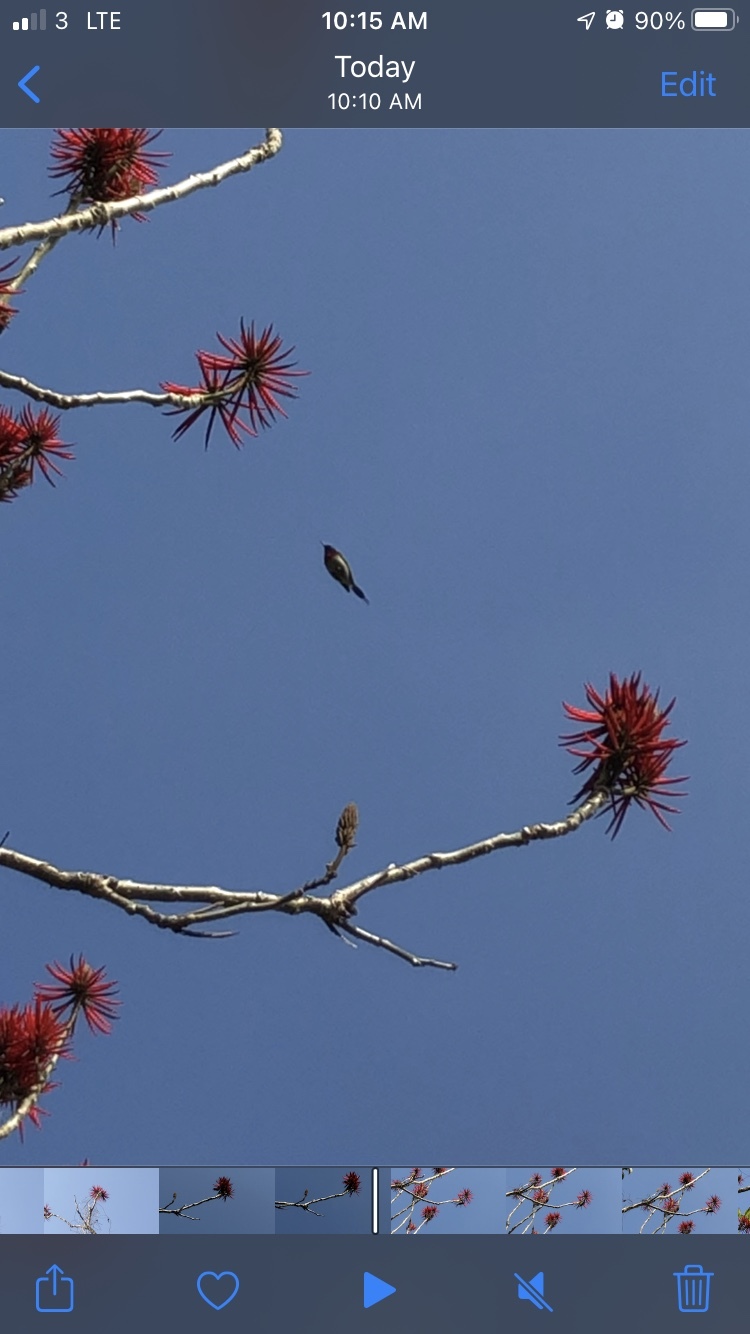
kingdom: Animalia
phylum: Chordata
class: Aves
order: Passeriformes
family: Nectariniidae
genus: Aethopyga
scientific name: Aethopyga christinae
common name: Fork-tailed sunbird
